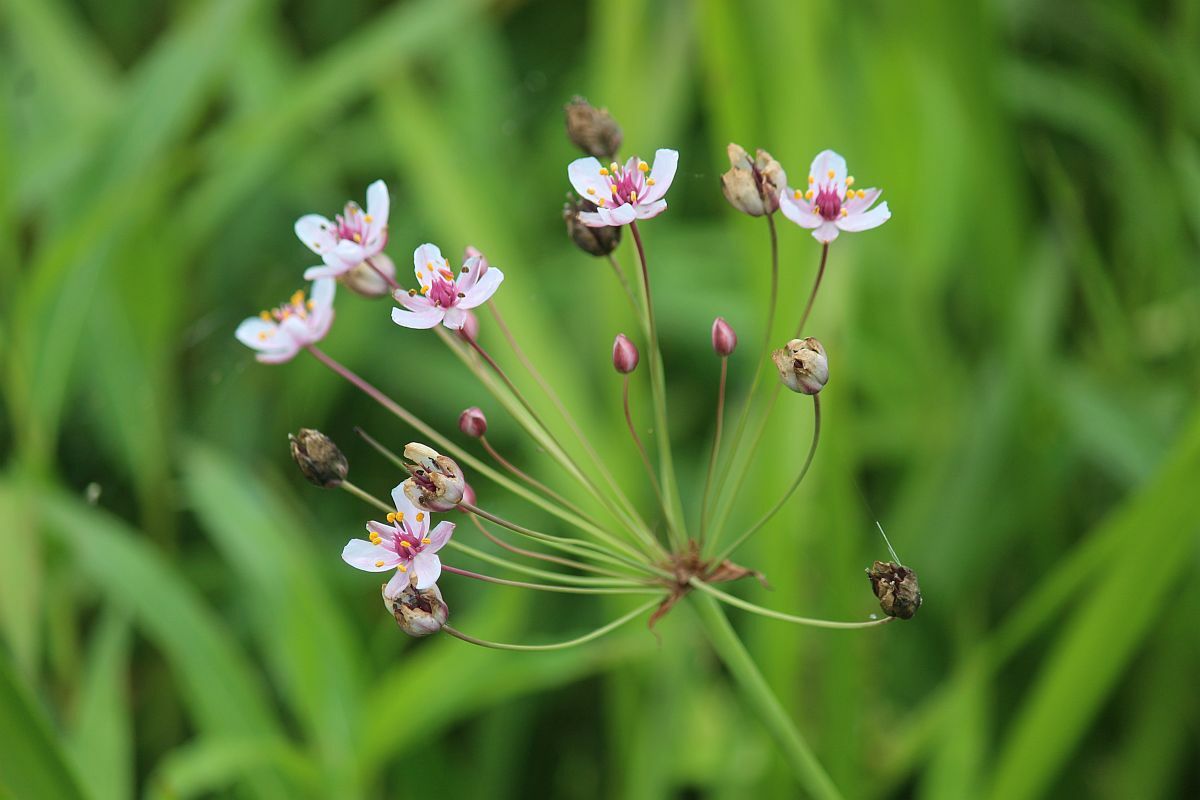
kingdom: Plantae
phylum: Tracheophyta
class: Liliopsida
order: Alismatales
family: Butomaceae
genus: Butomus
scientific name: Butomus umbellatus
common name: Flowering-rush
